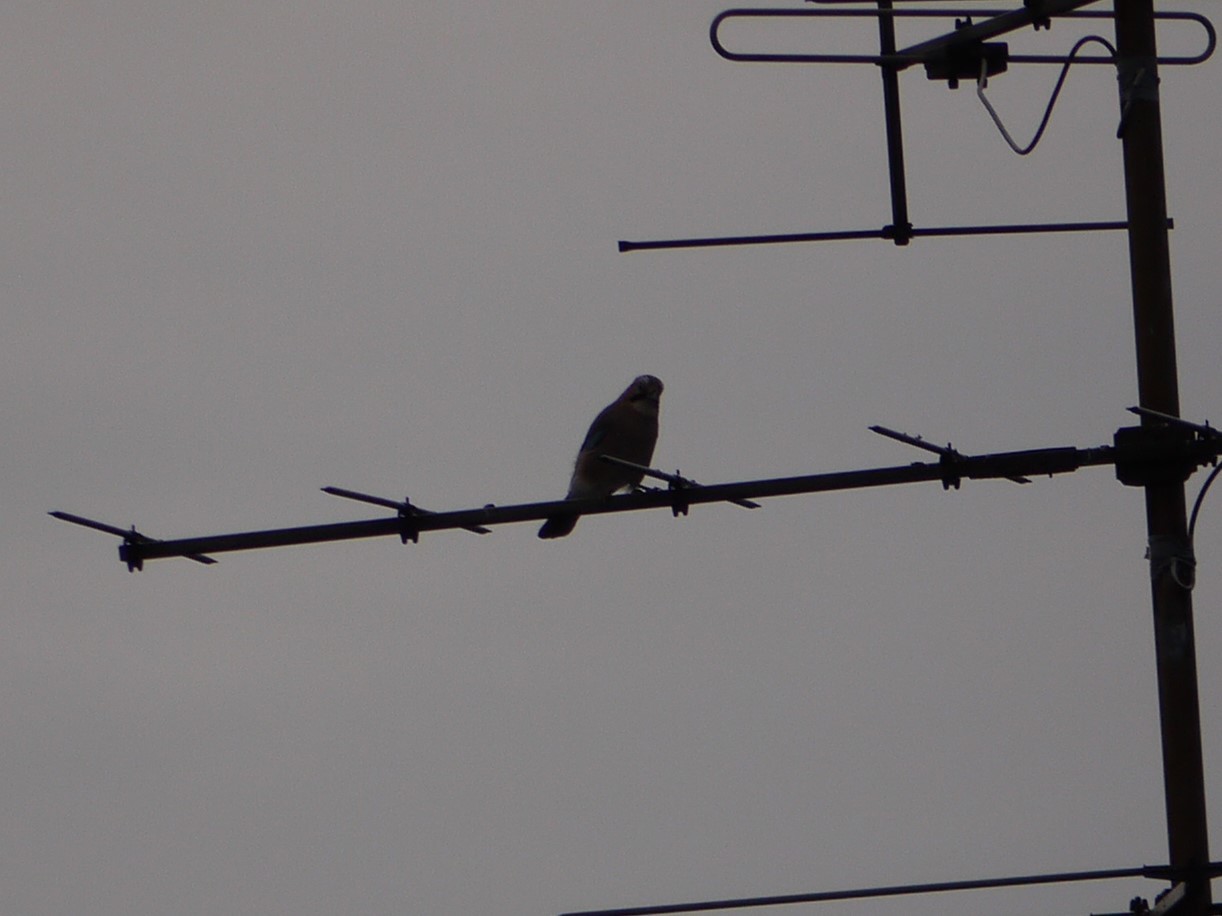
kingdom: Animalia
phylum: Chordata
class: Aves
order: Passeriformes
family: Corvidae
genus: Garrulus
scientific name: Garrulus glandarius
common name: Eurasian jay
